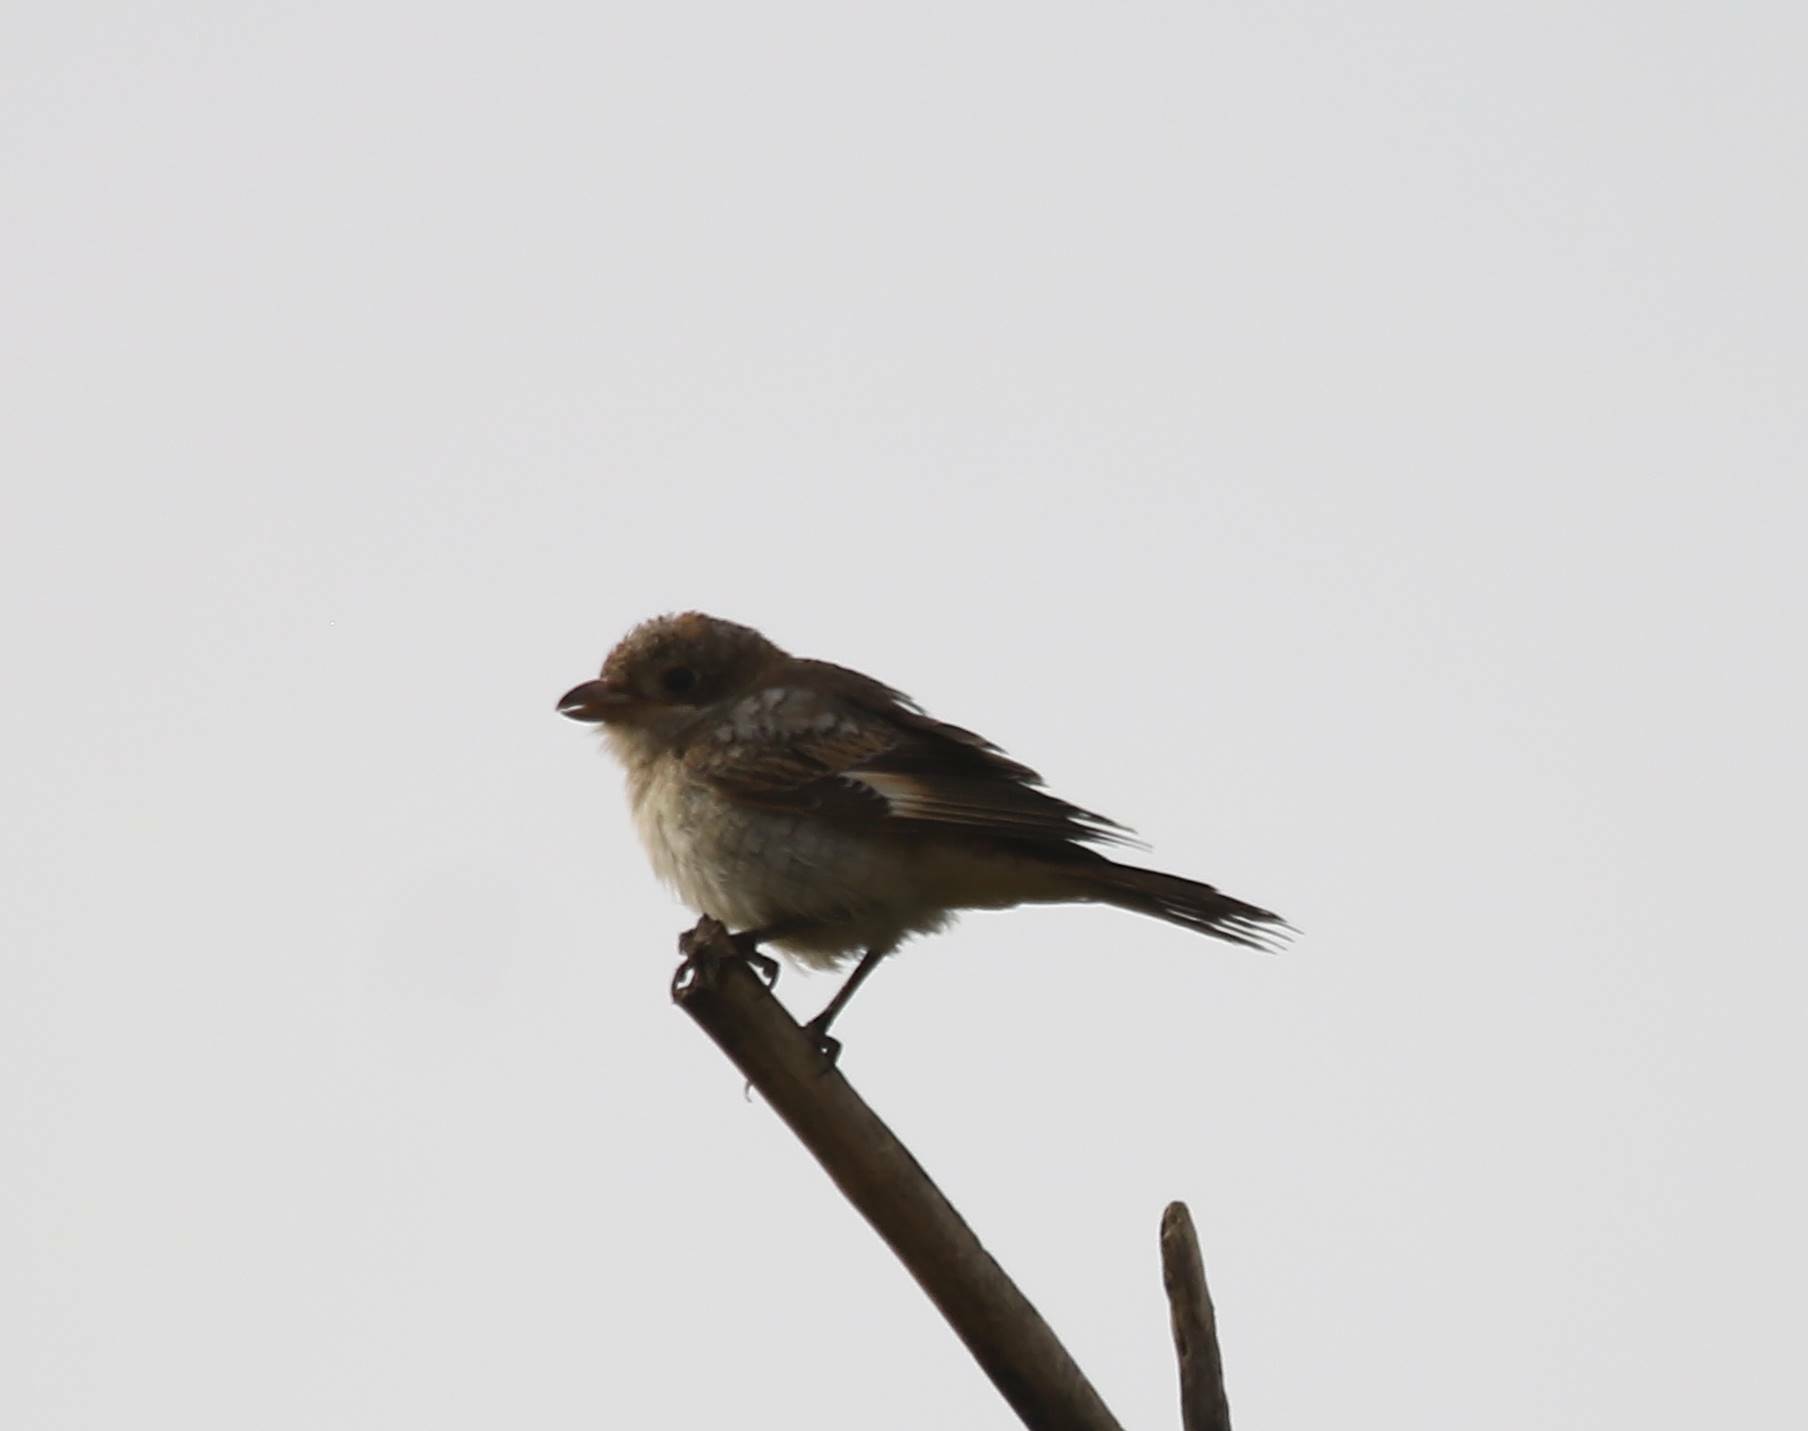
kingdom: Animalia
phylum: Chordata
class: Aves
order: Passeriformes
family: Laniidae
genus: Lanius
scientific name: Lanius senator
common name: Woodchat shrike
